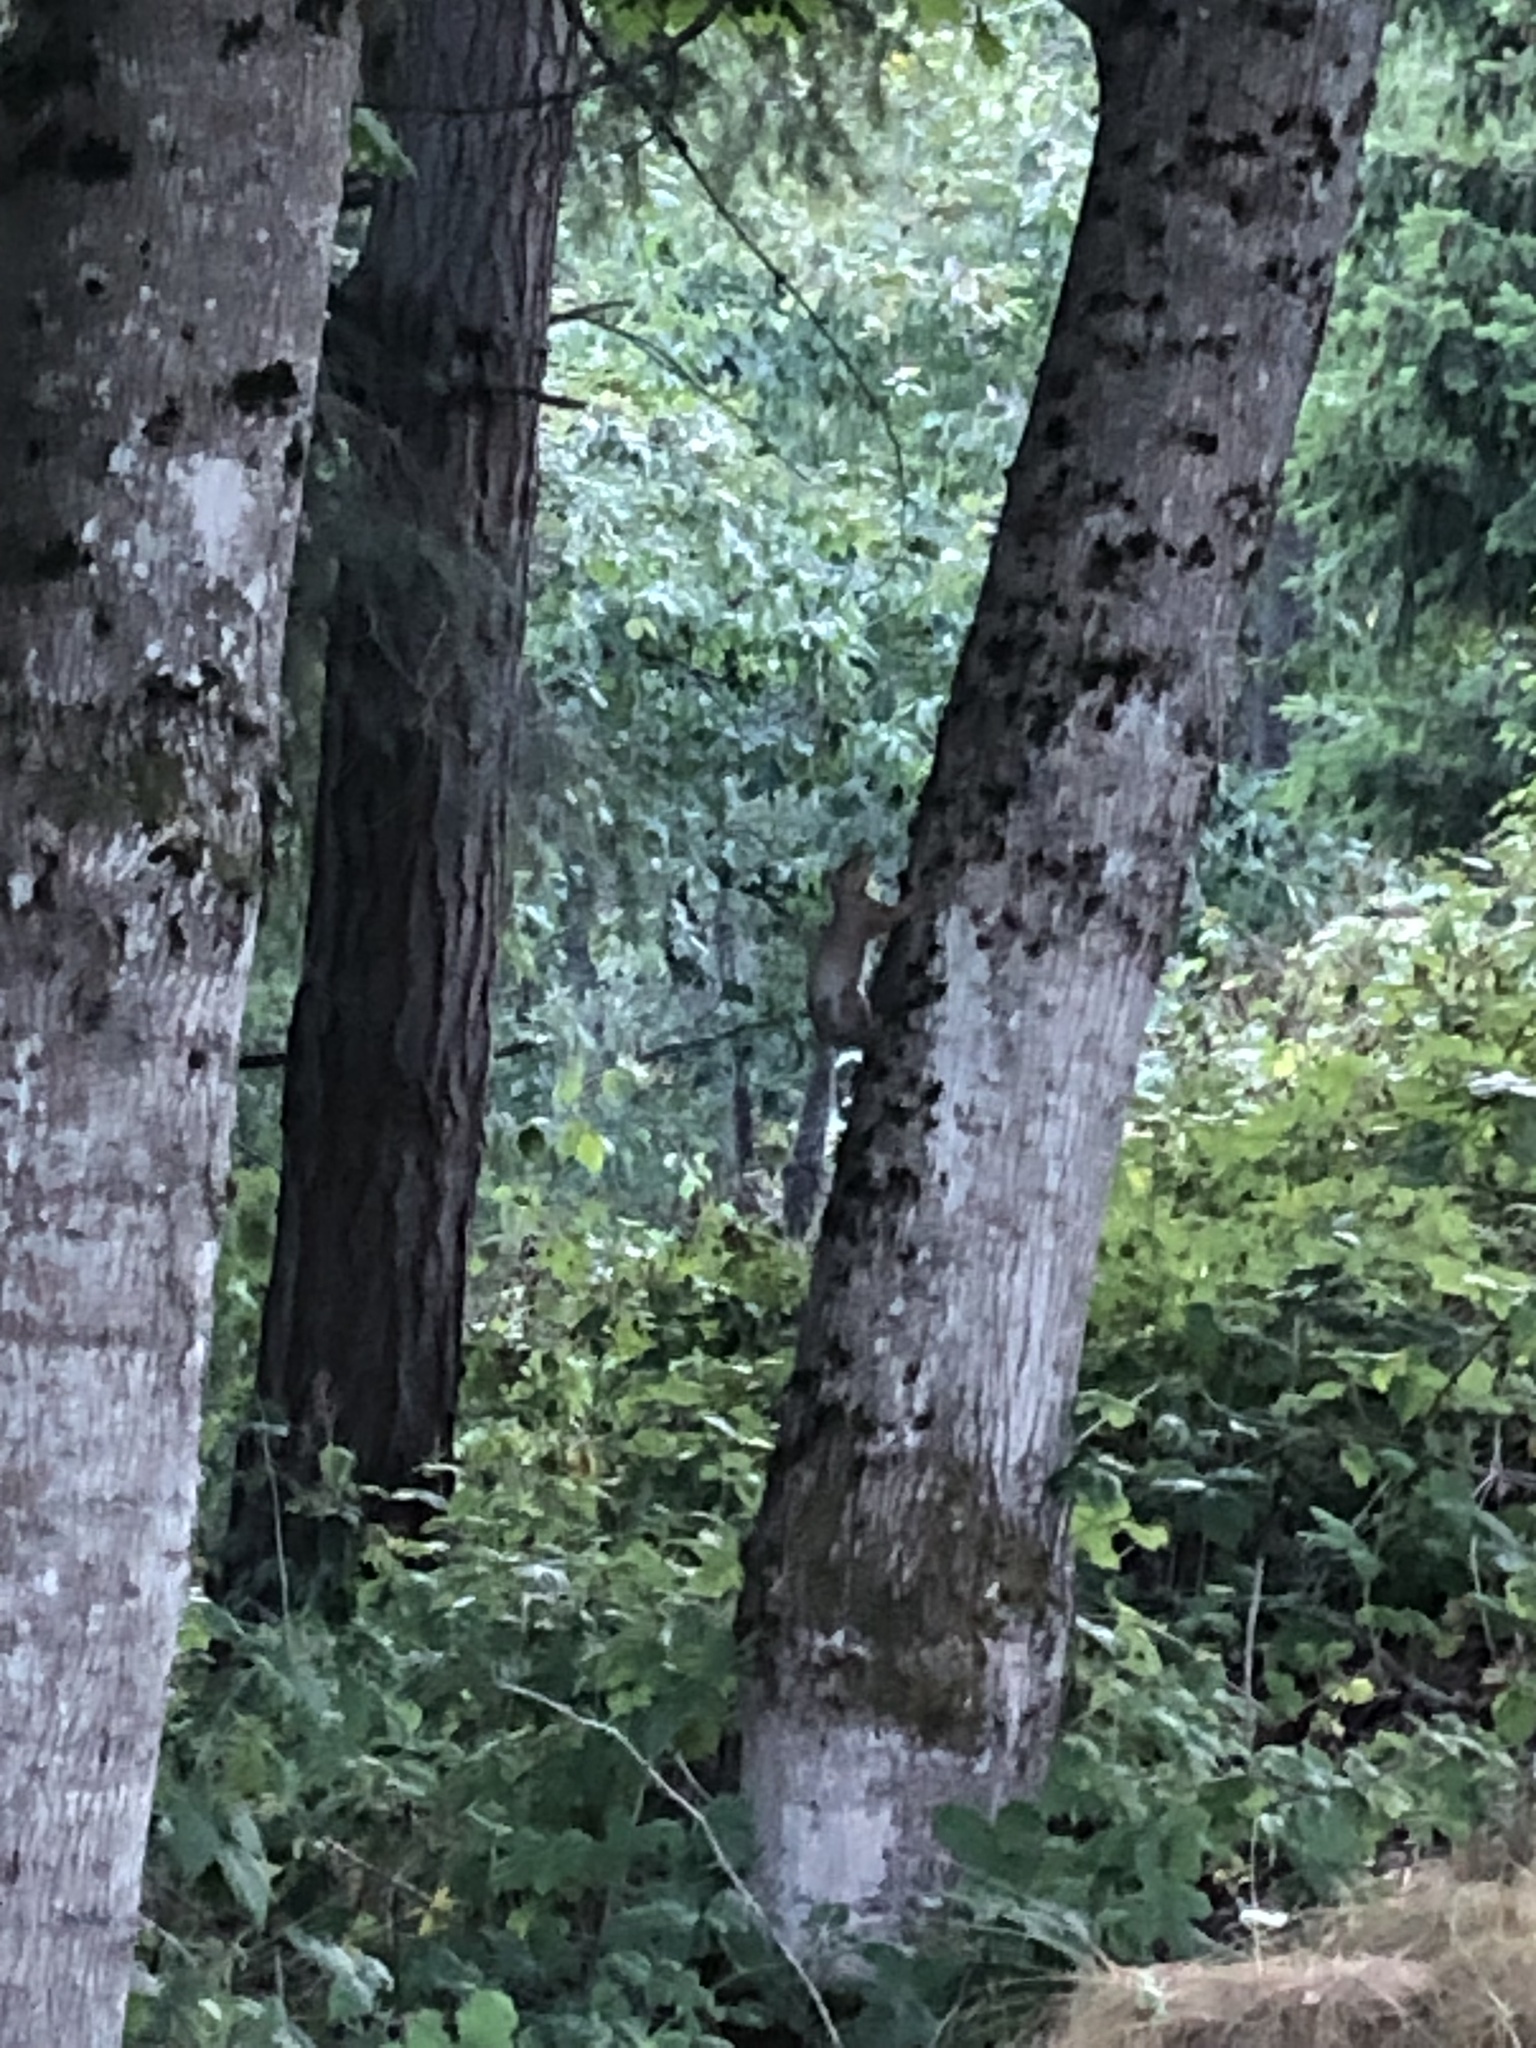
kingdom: Animalia
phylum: Chordata
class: Mammalia
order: Rodentia
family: Sciuridae
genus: Sciurus
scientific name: Sciurus carolinensis
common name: Eastern gray squirrel
